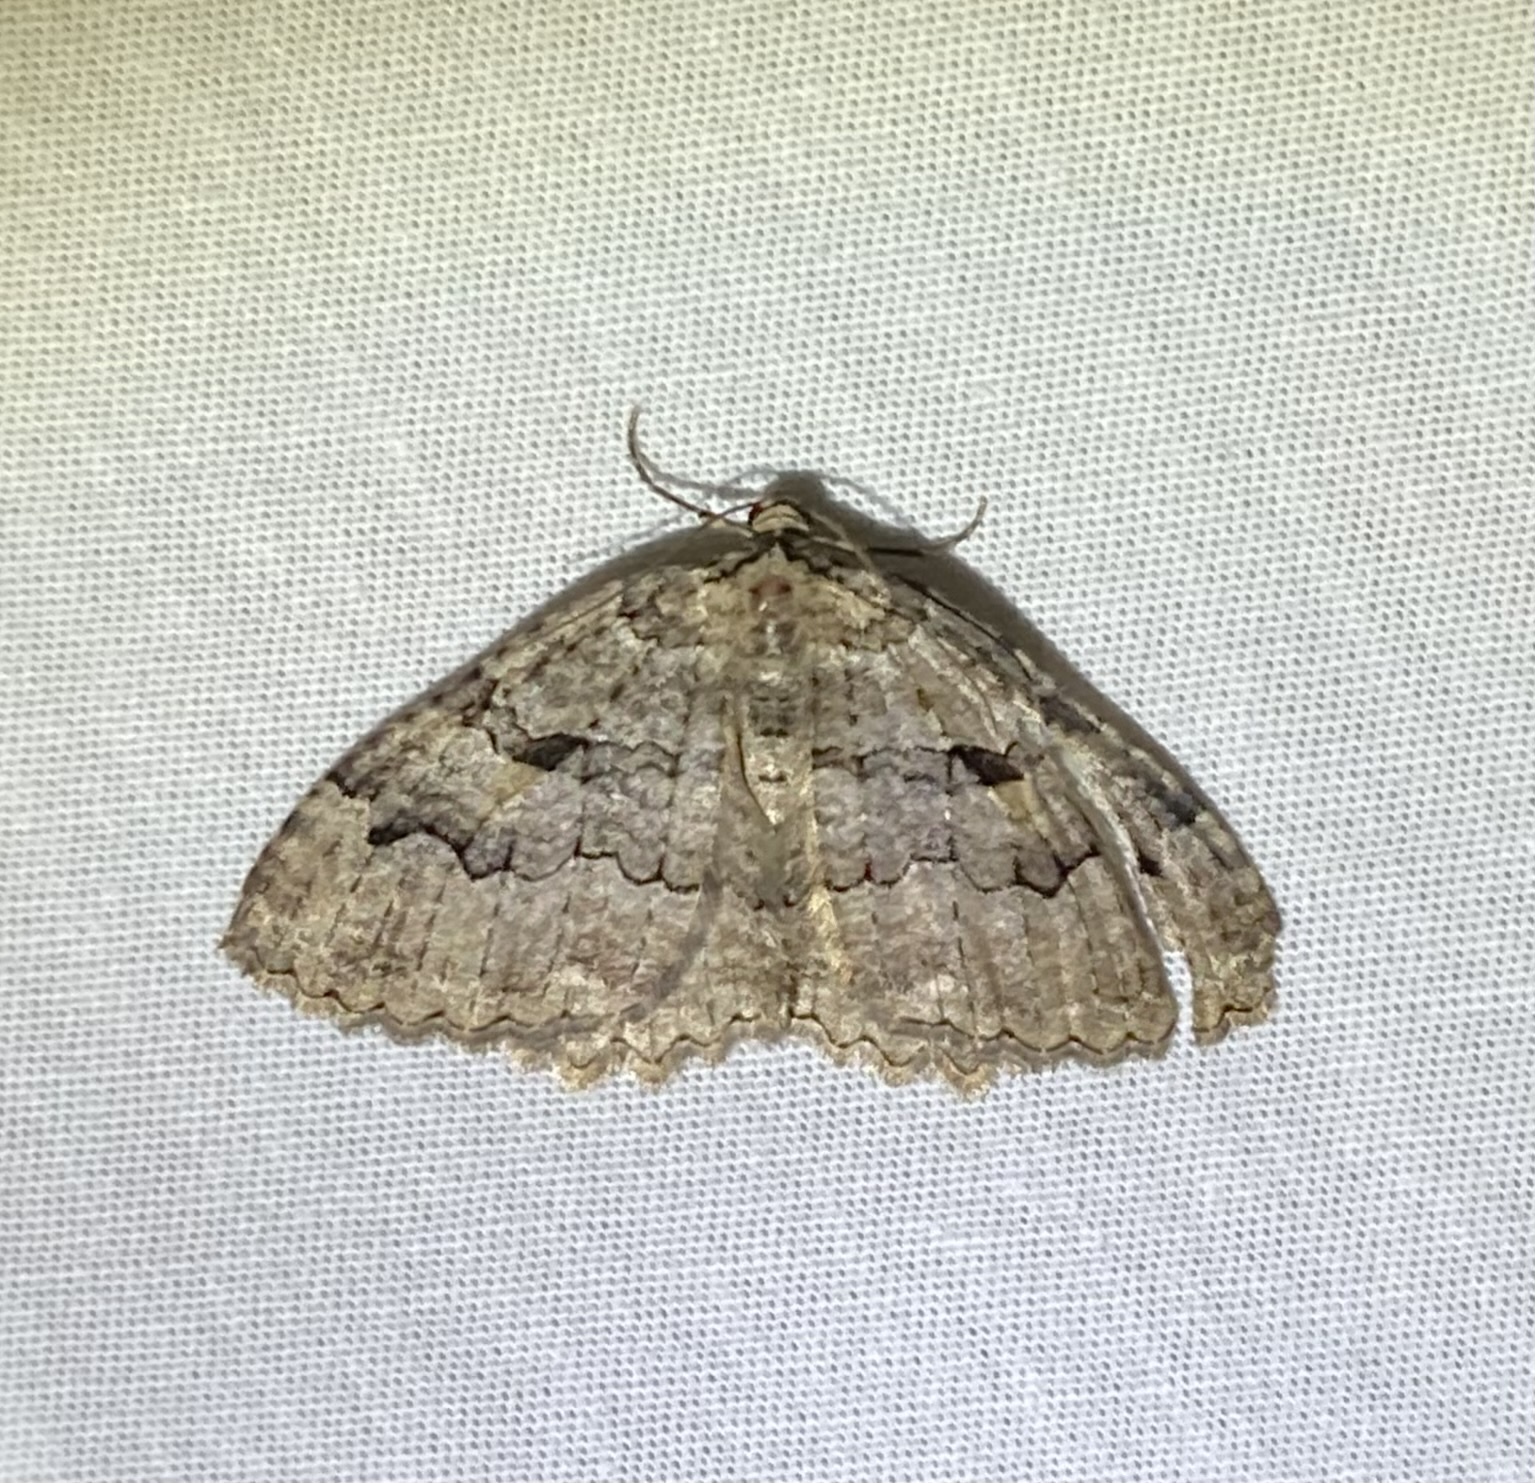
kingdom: Animalia
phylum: Arthropoda
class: Insecta
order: Lepidoptera
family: Geometridae
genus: Triphosa
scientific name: Triphosa haesitata
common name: Tissue moth
